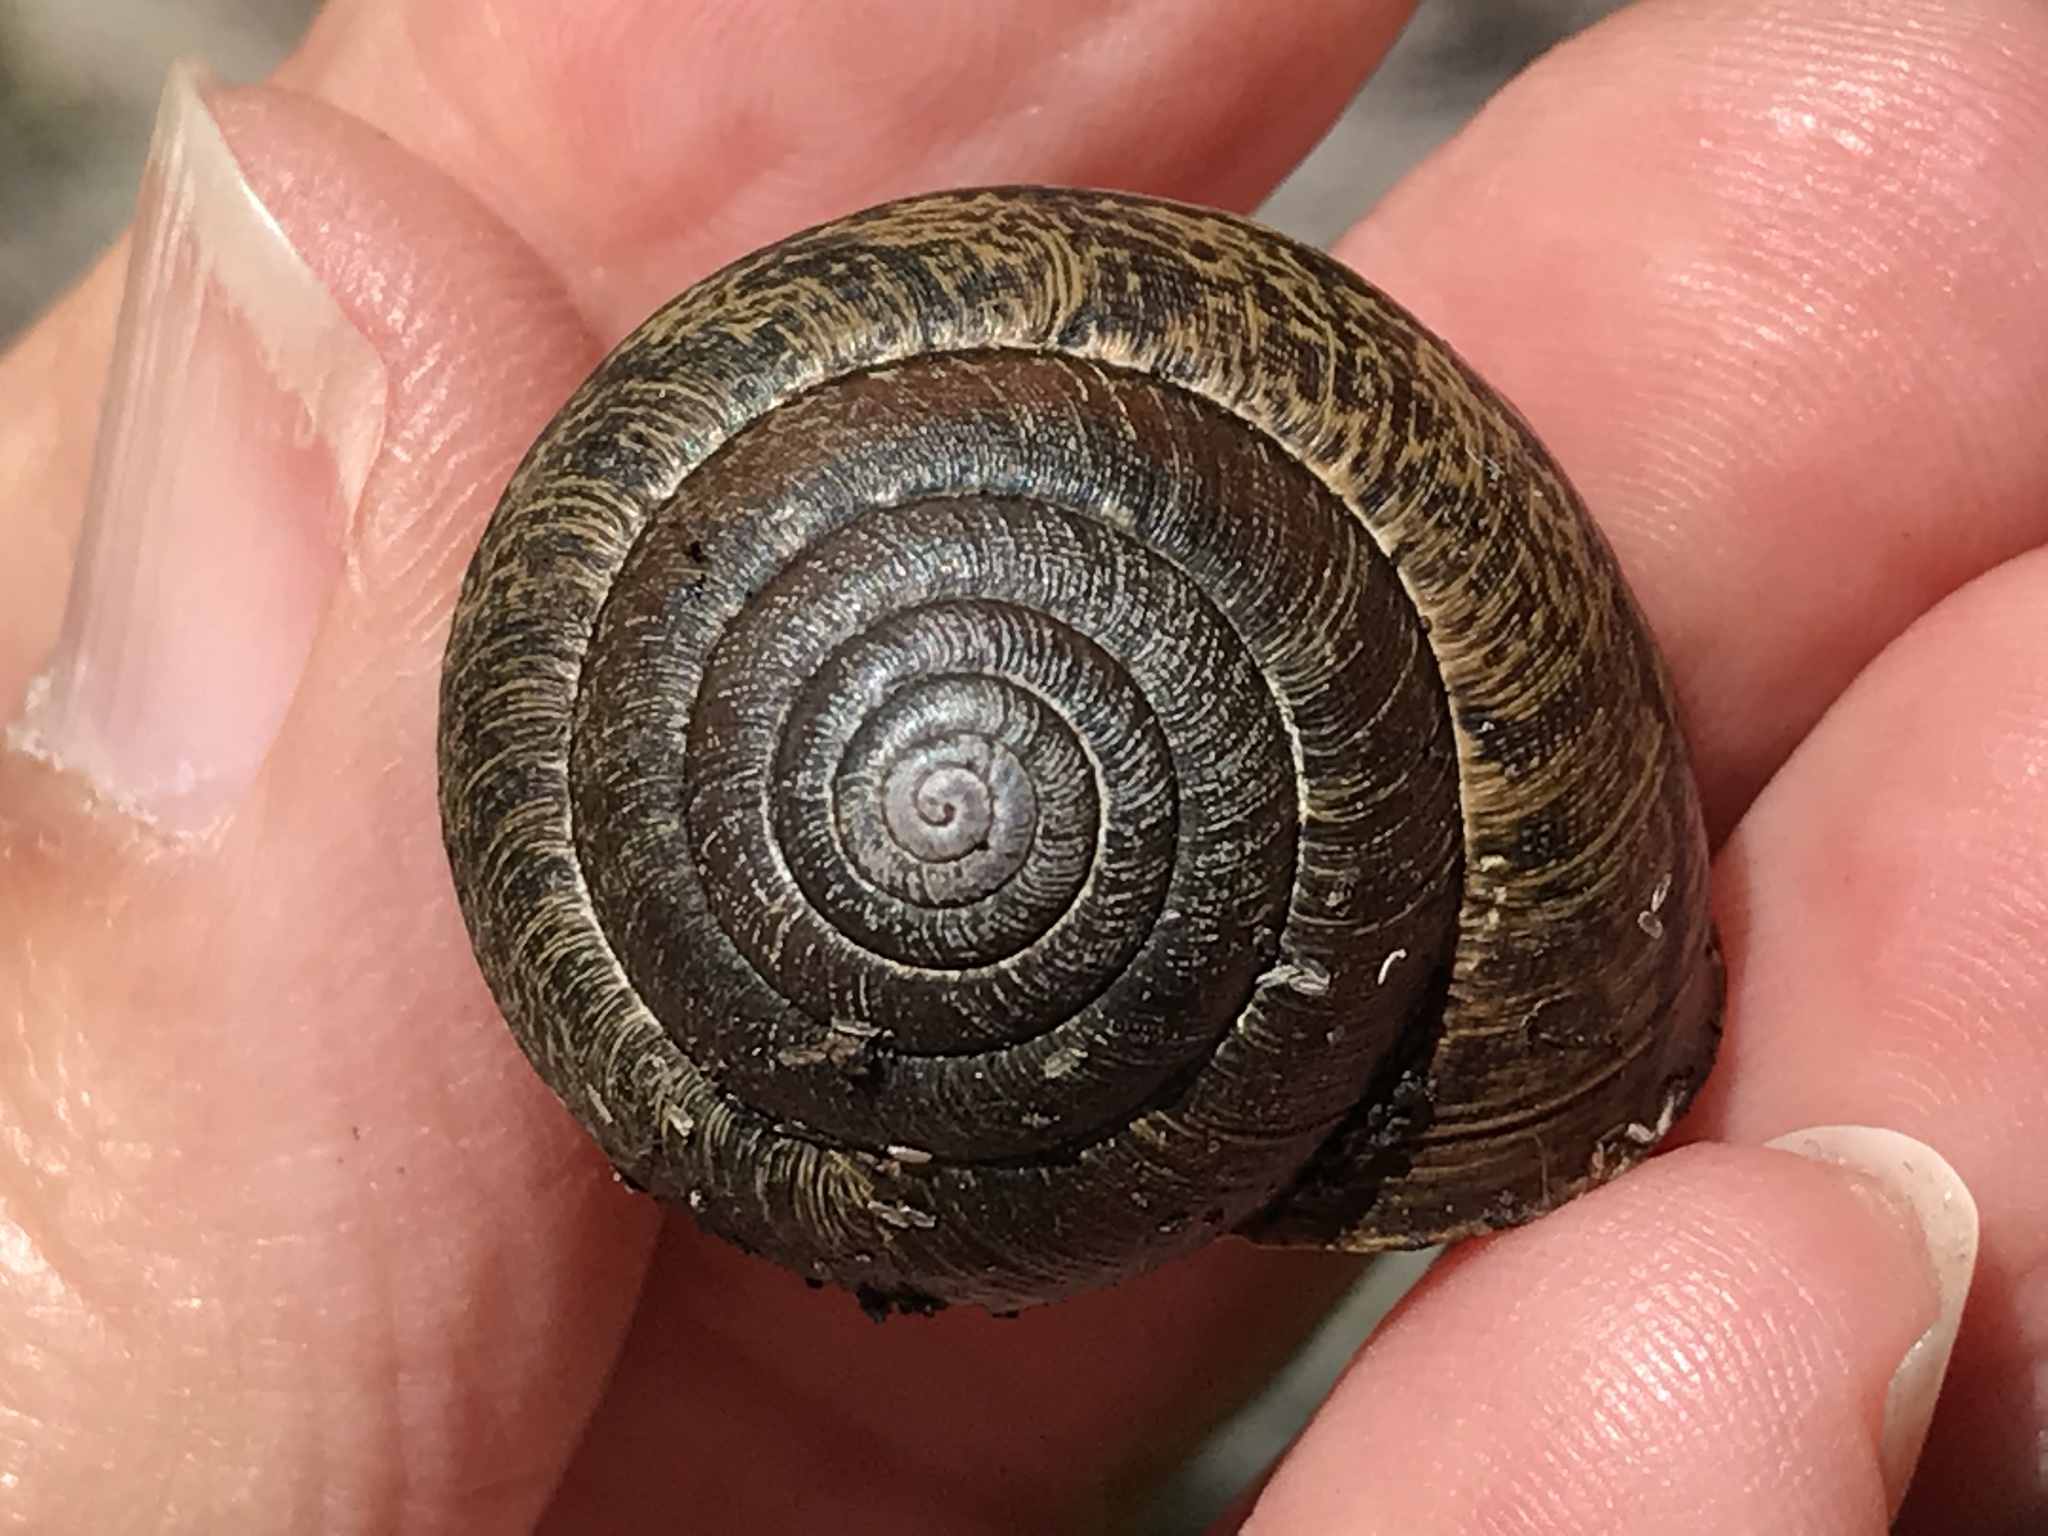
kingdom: Animalia
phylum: Mollusca
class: Gastropoda
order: Stylommatophora
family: Xanthonychidae
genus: Helminthoglypta
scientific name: Helminthoglypta arrosa
